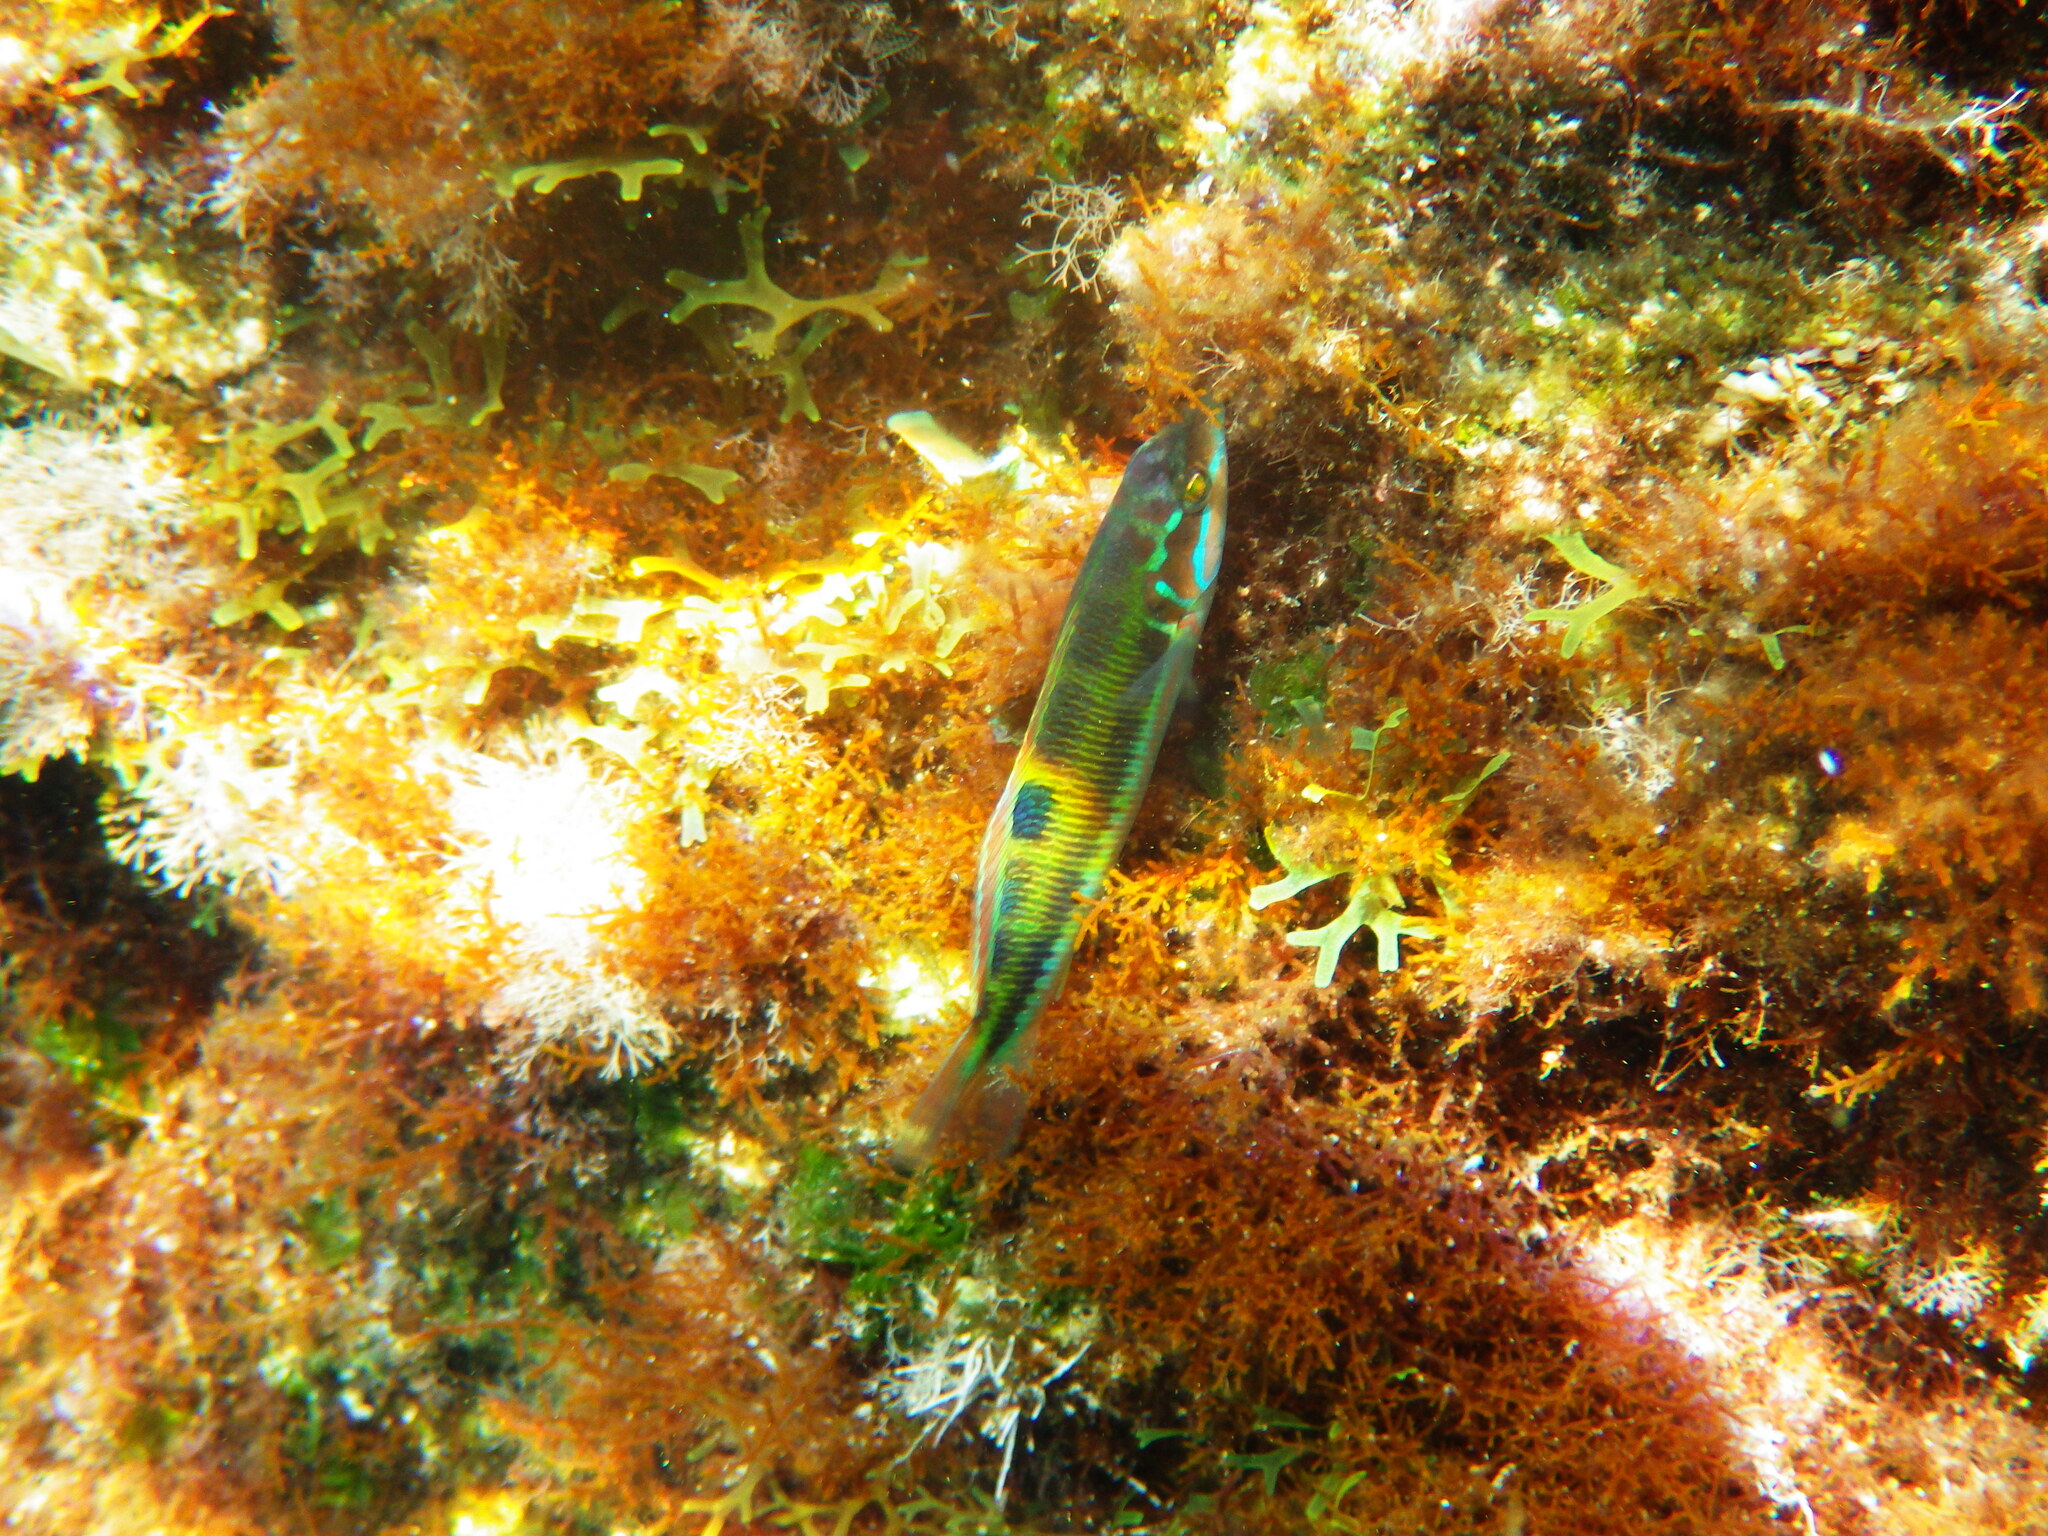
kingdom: Animalia
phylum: Chordata
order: Perciformes
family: Labridae
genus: Thalassoma
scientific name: Thalassoma pavo
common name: Ornate wrasse
